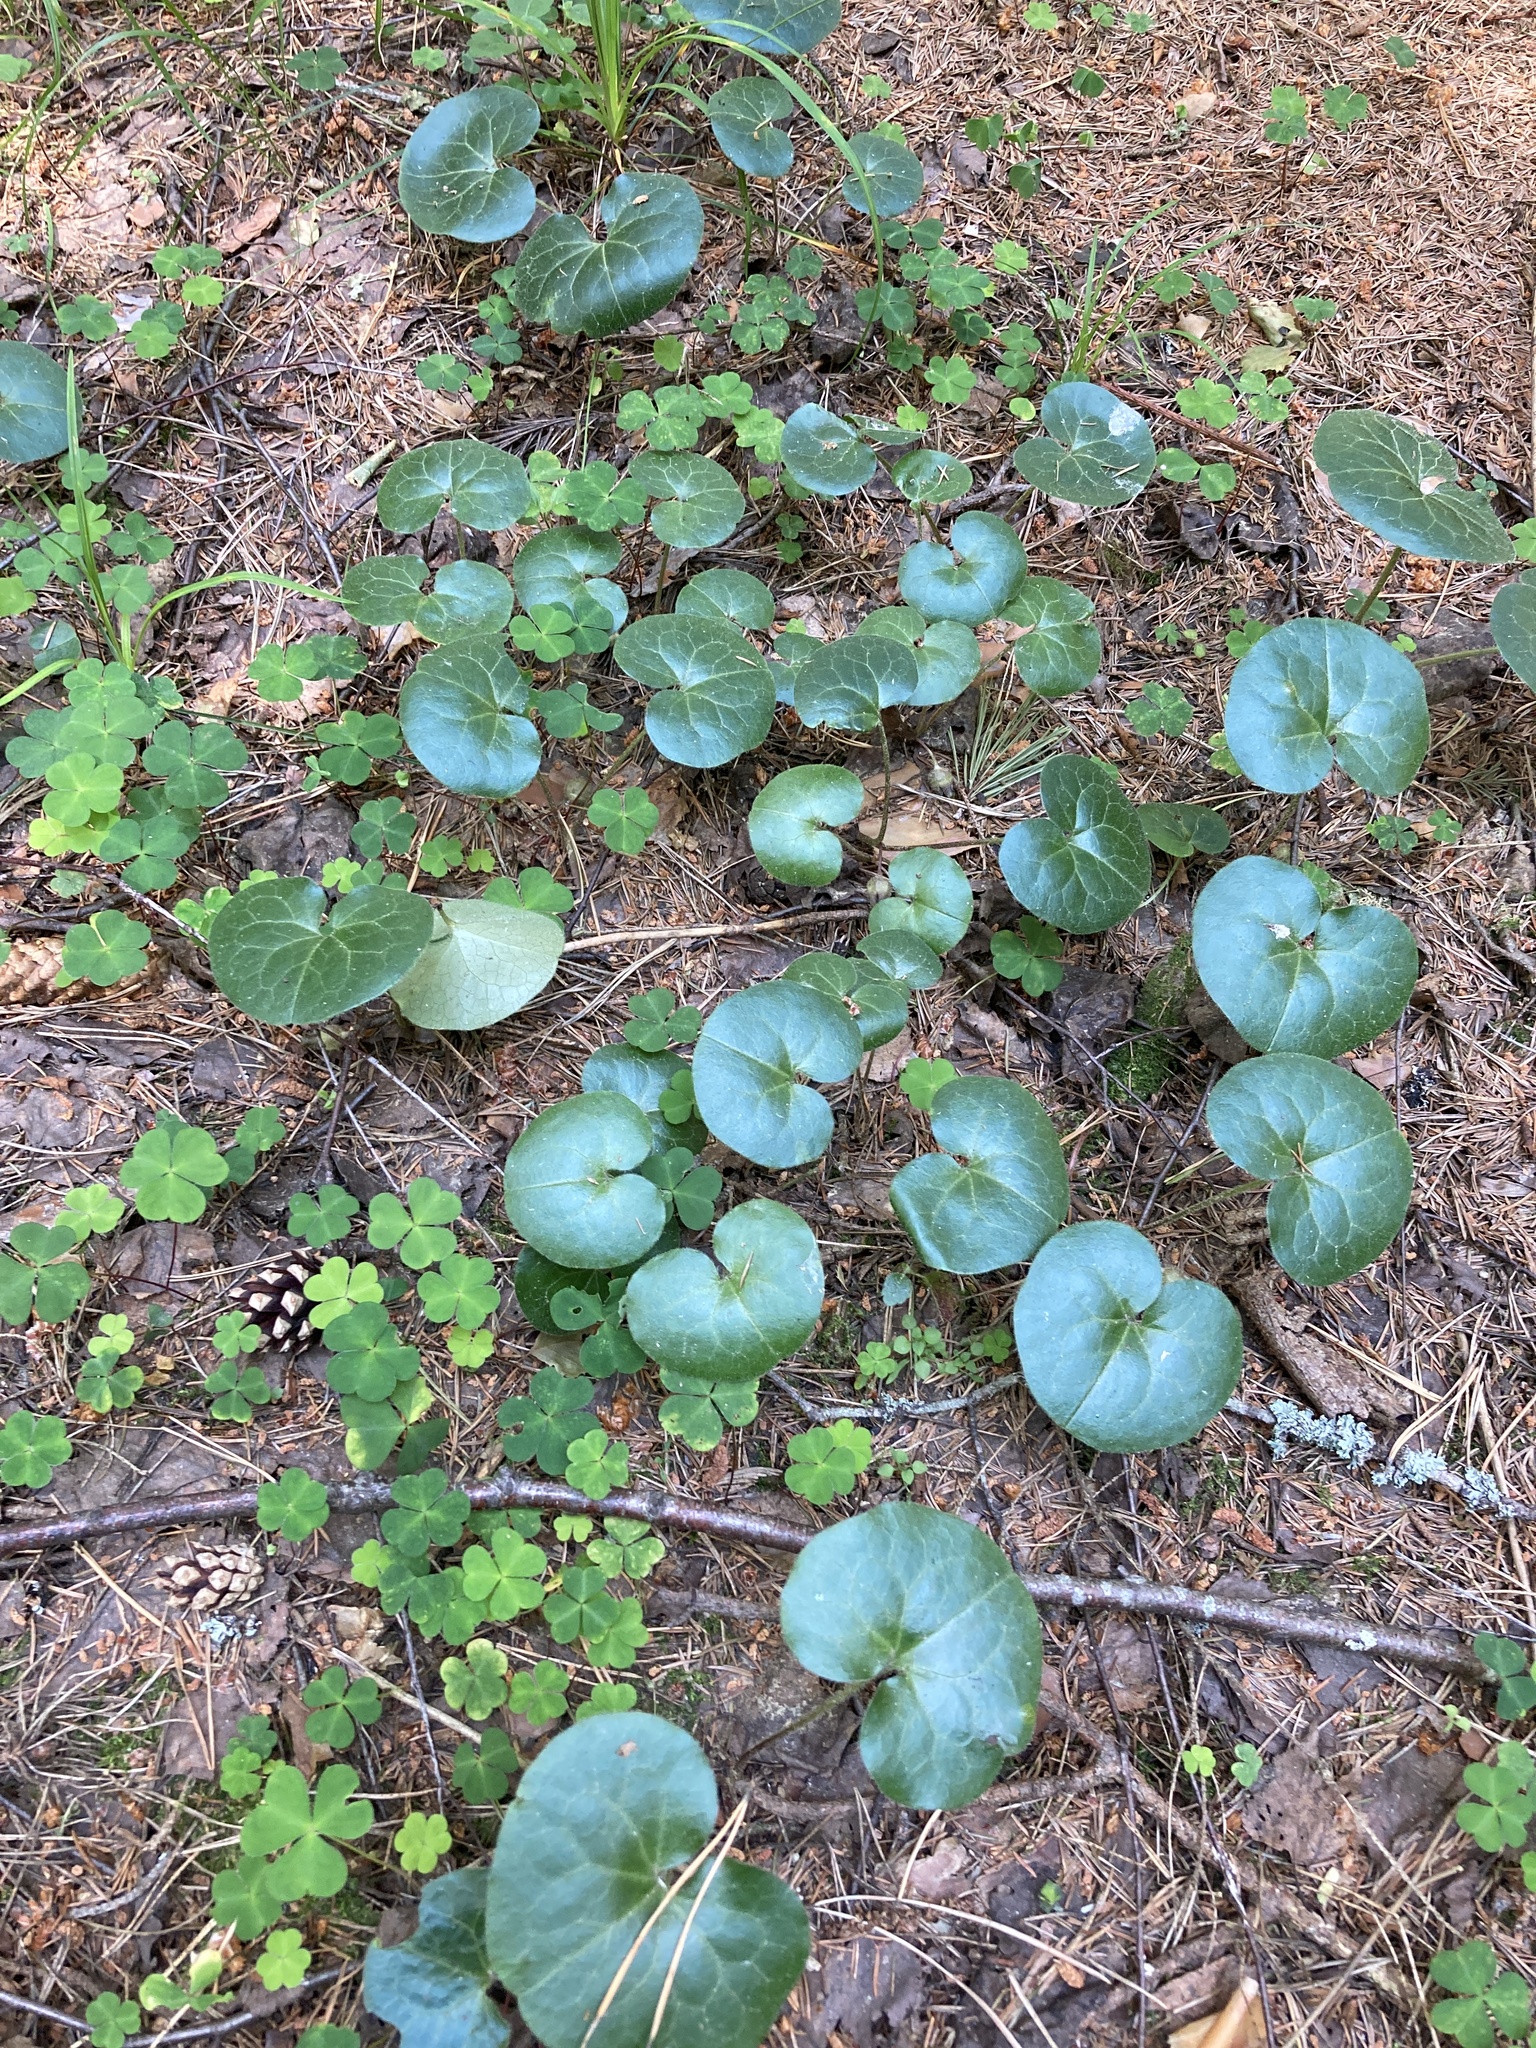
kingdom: Plantae
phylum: Tracheophyta
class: Magnoliopsida
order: Piperales
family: Aristolochiaceae
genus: Asarum
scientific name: Asarum europaeum
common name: Asarabacca
